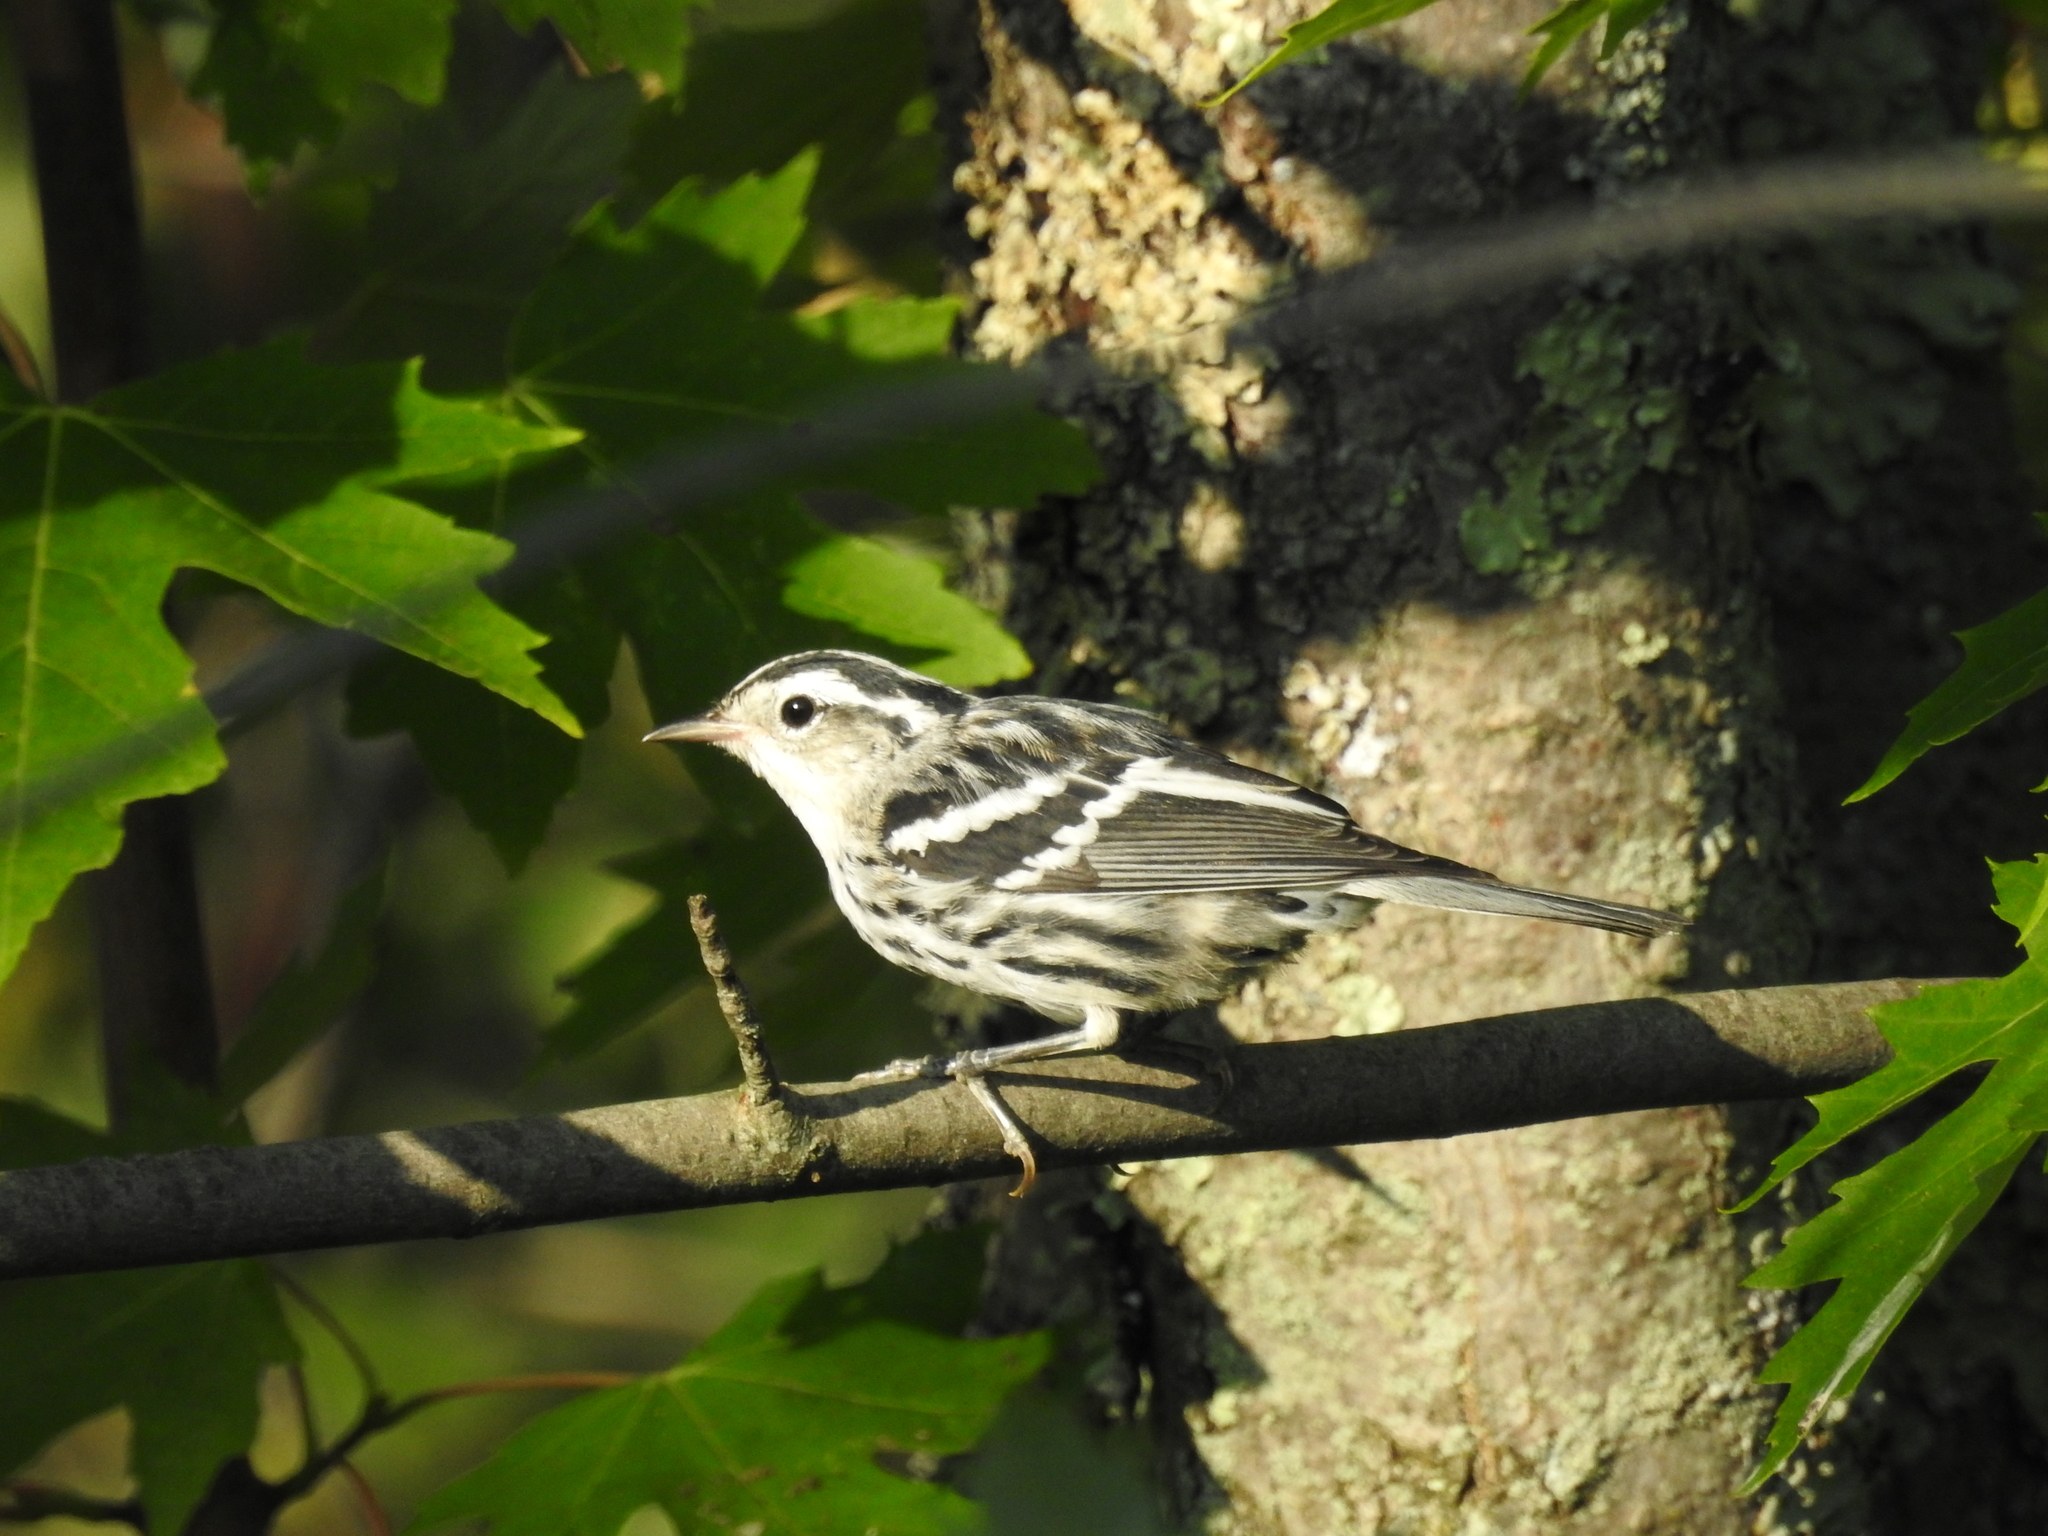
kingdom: Animalia
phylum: Chordata
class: Aves
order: Passeriformes
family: Parulidae
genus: Mniotilta
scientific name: Mniotilta varia
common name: Black-and-white warbler
